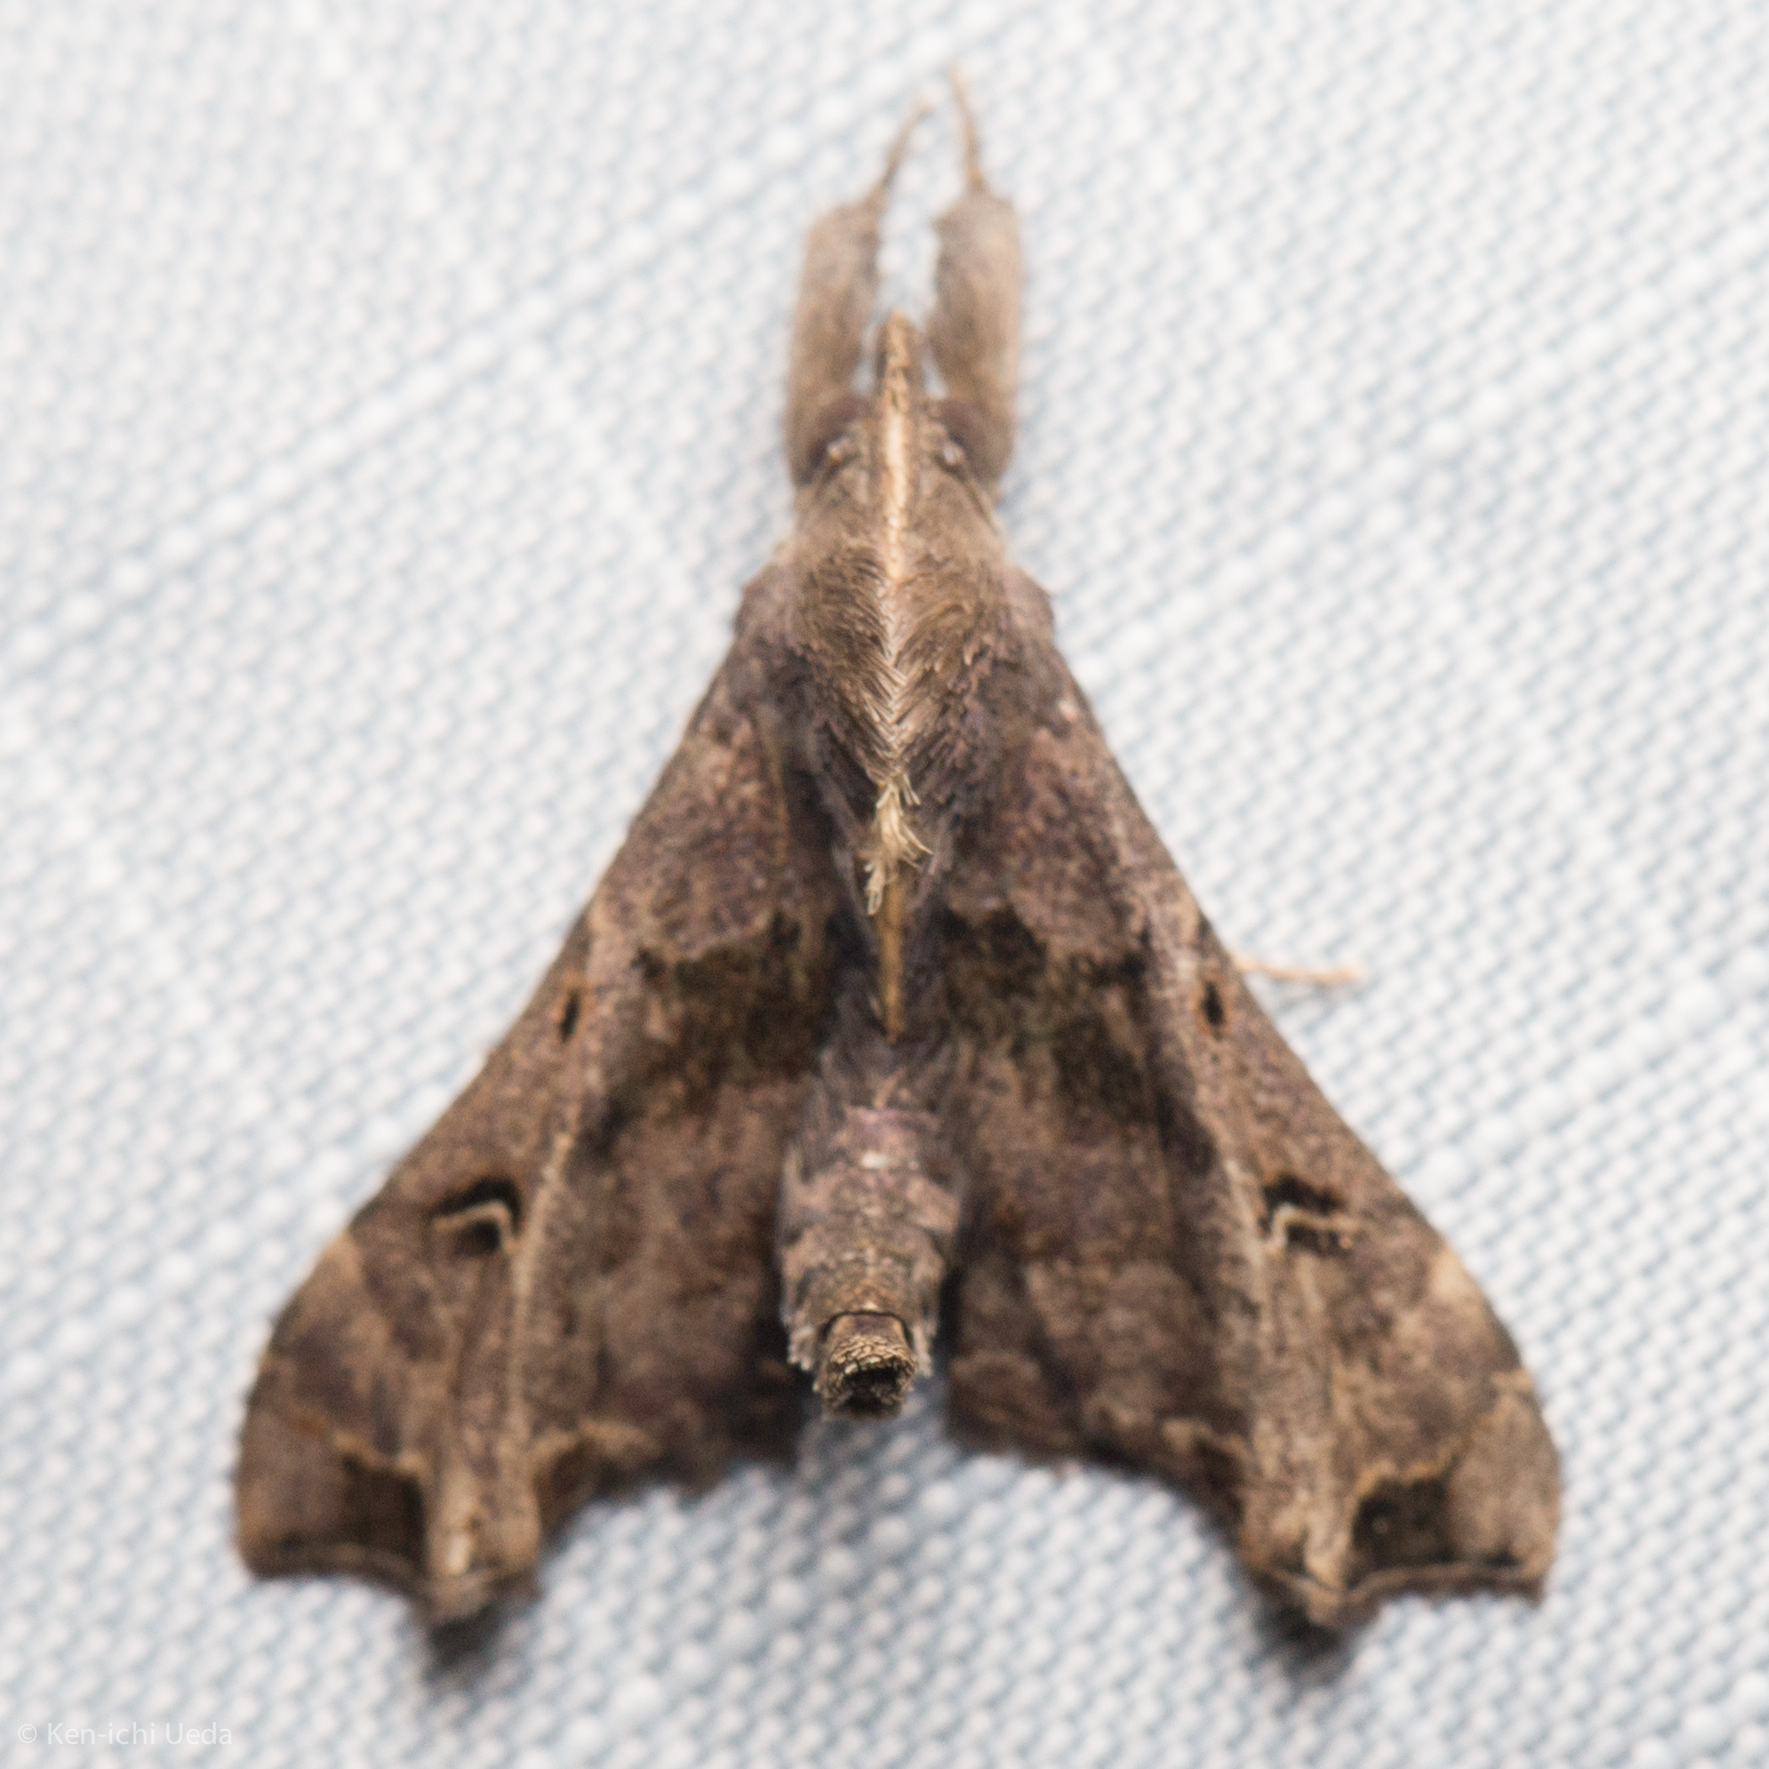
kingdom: Animalia
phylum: Arthropoda
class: Insecta
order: Lepidoptera
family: Erebidae
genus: Palthis
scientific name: Palthis asopialis
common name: Faint-spotted palthis moth
